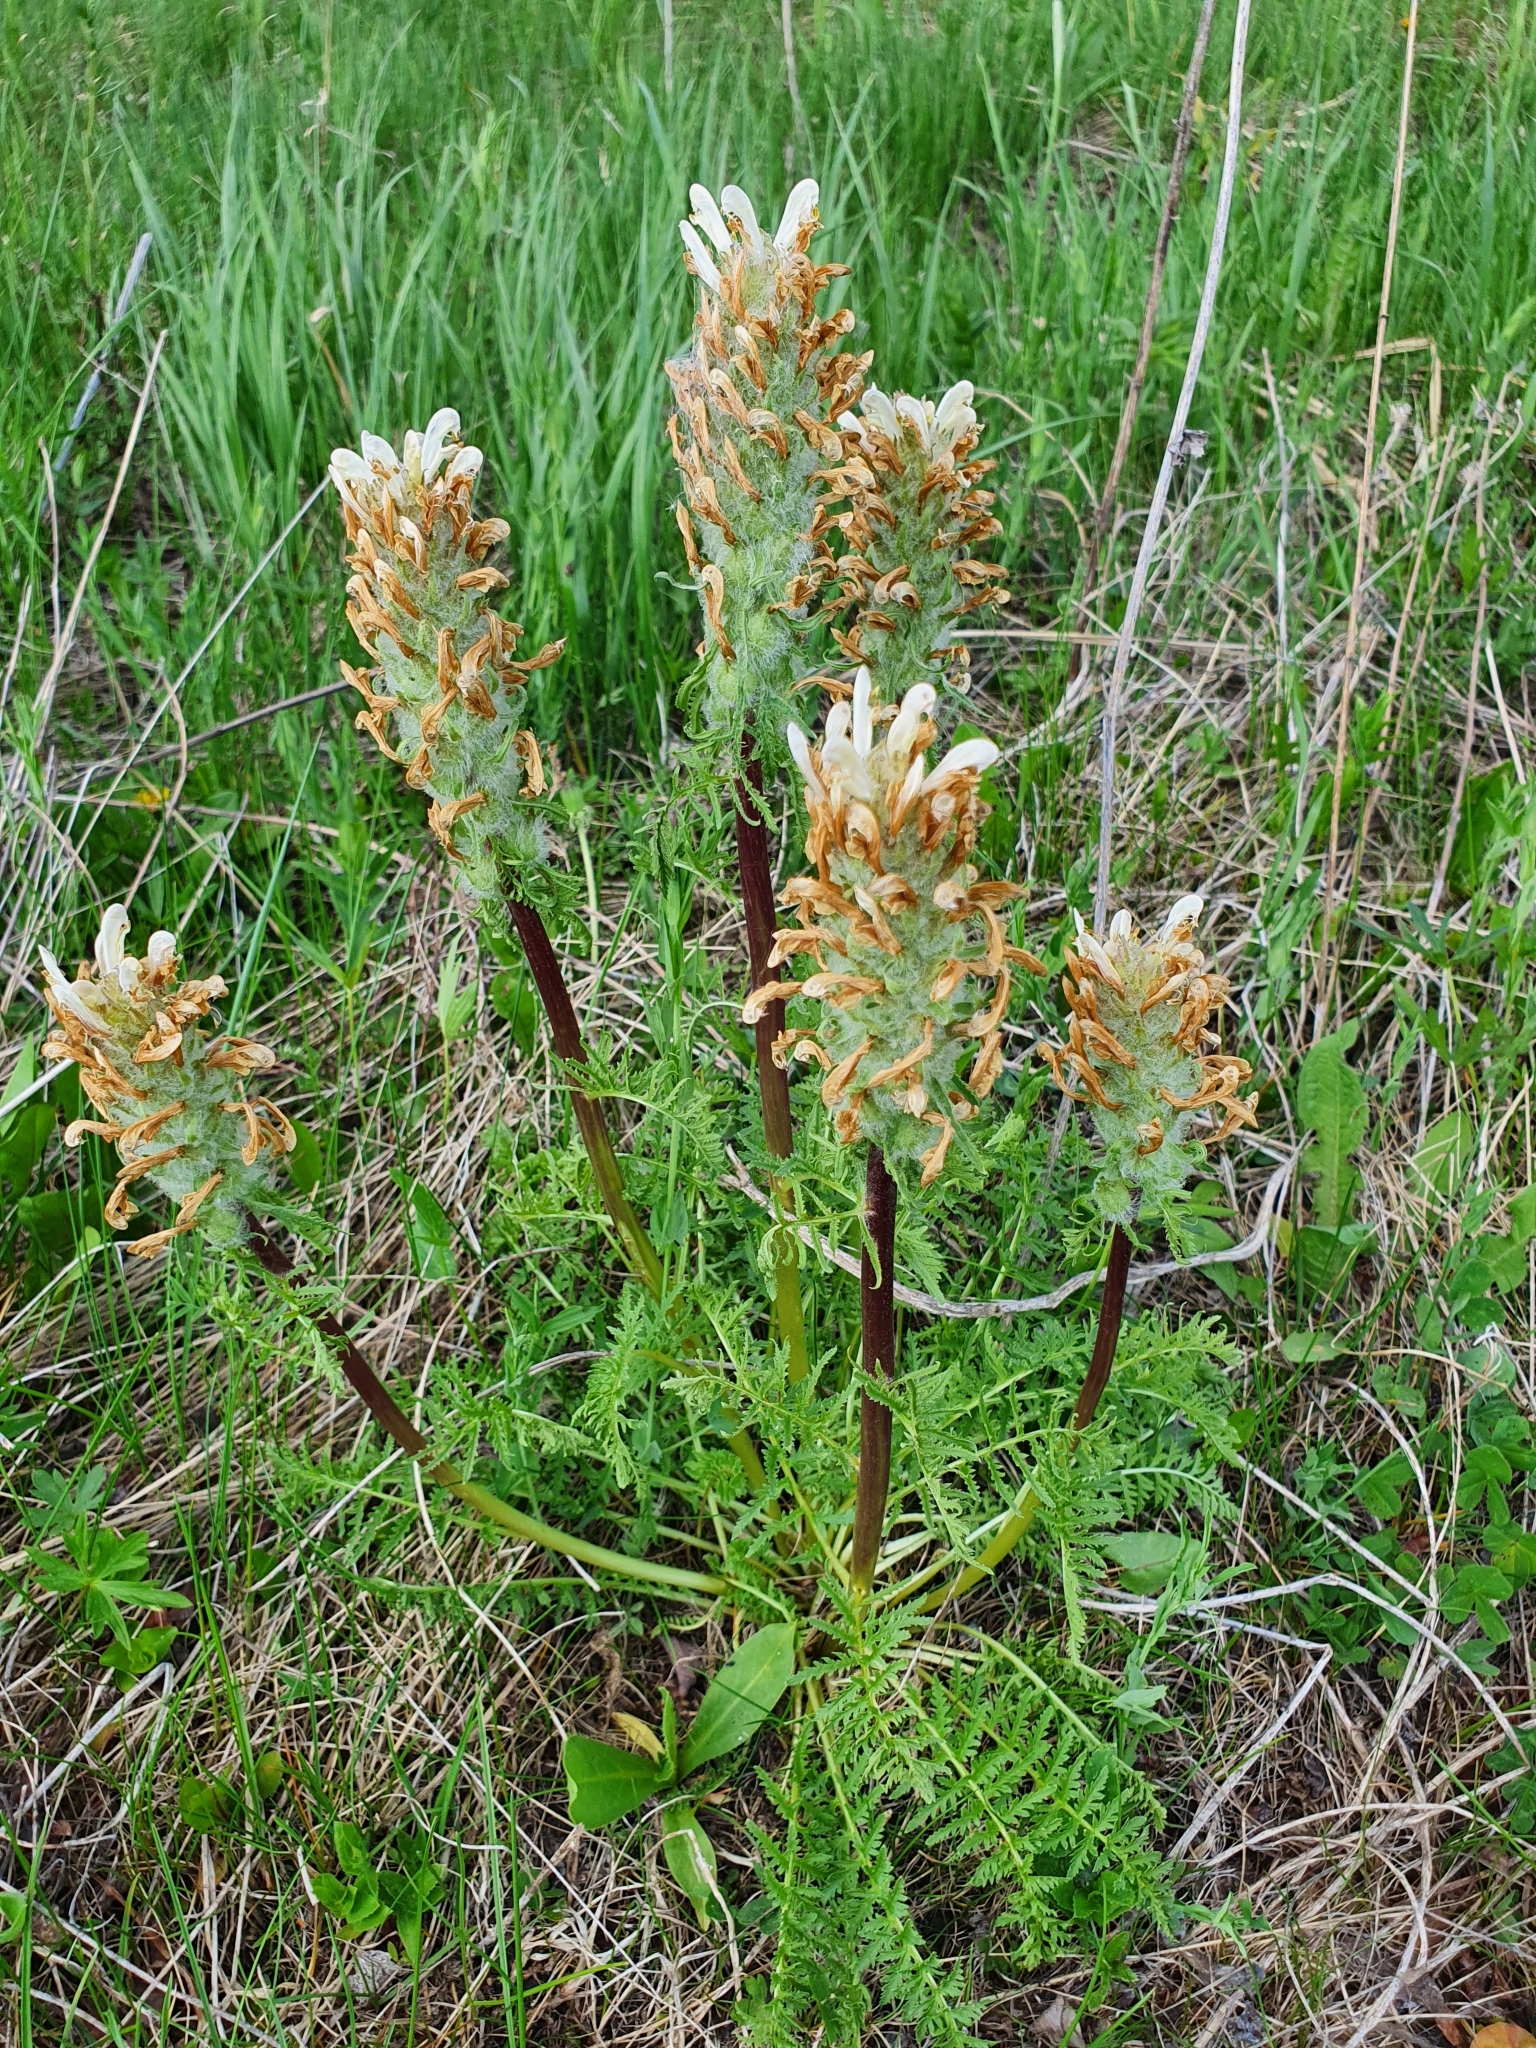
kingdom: Plantae
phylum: Tracheophyta
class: Magnoliopsida
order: Lamiales
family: Orobanchaceae
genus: Pedicularis
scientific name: Pedicularis dasystachys
